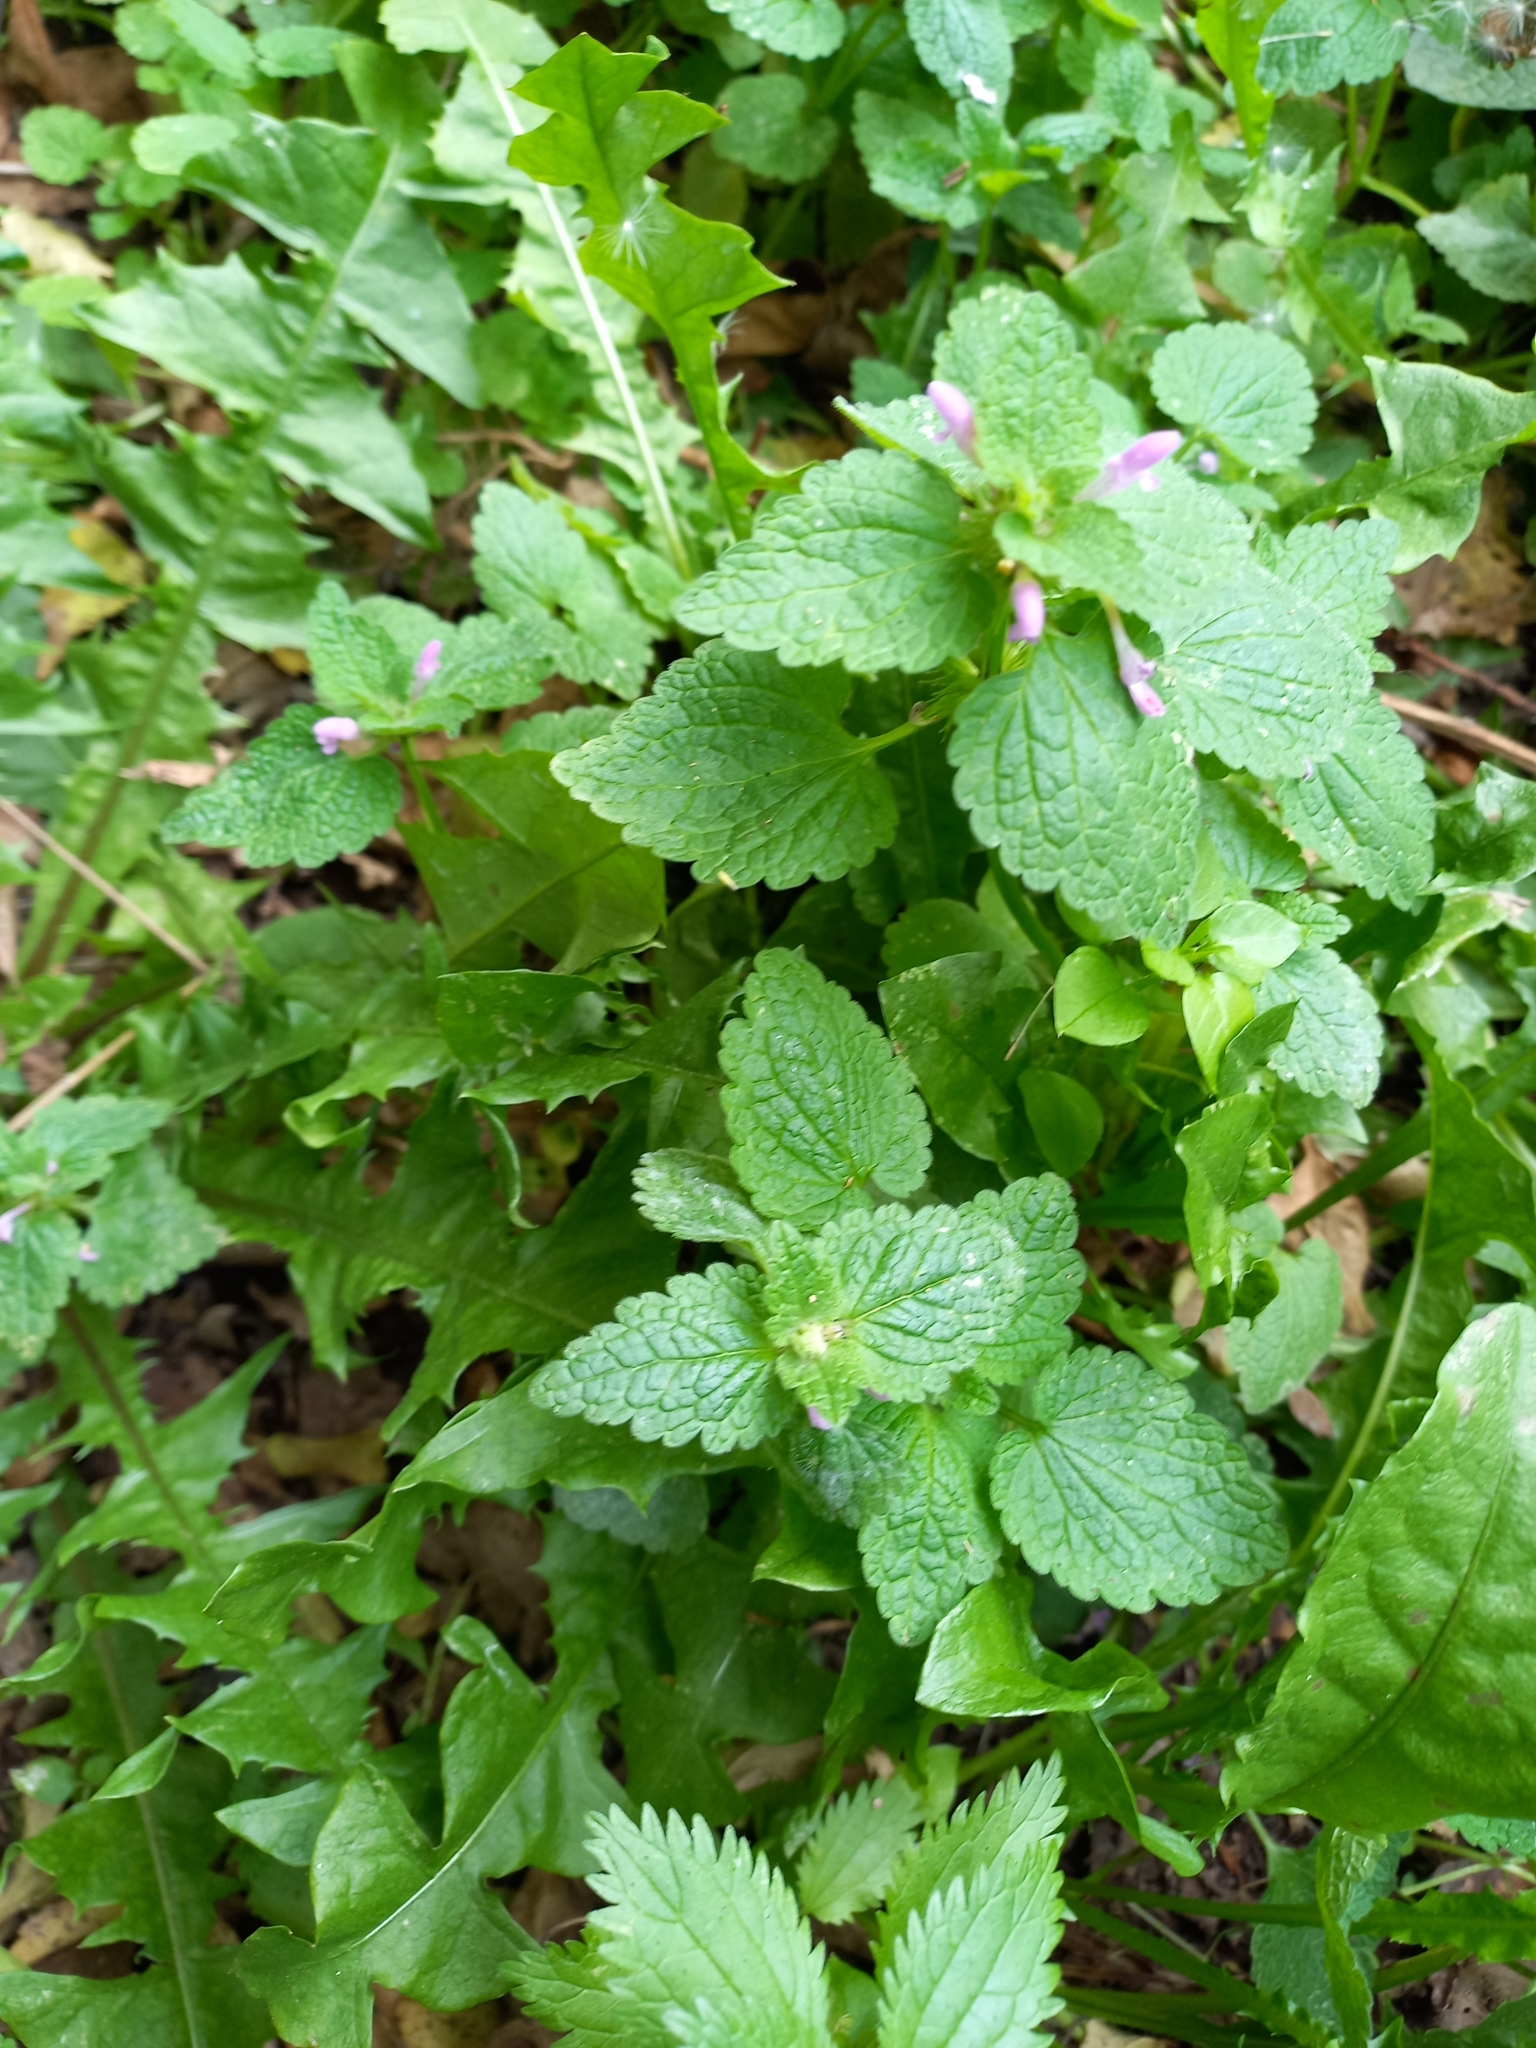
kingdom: Plantae
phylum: Tracheophyta
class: Magnoliopsida
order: Lamiales
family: Lamiaceae
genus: Lamium
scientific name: Lamium purpureum
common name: Red dead-nettle
